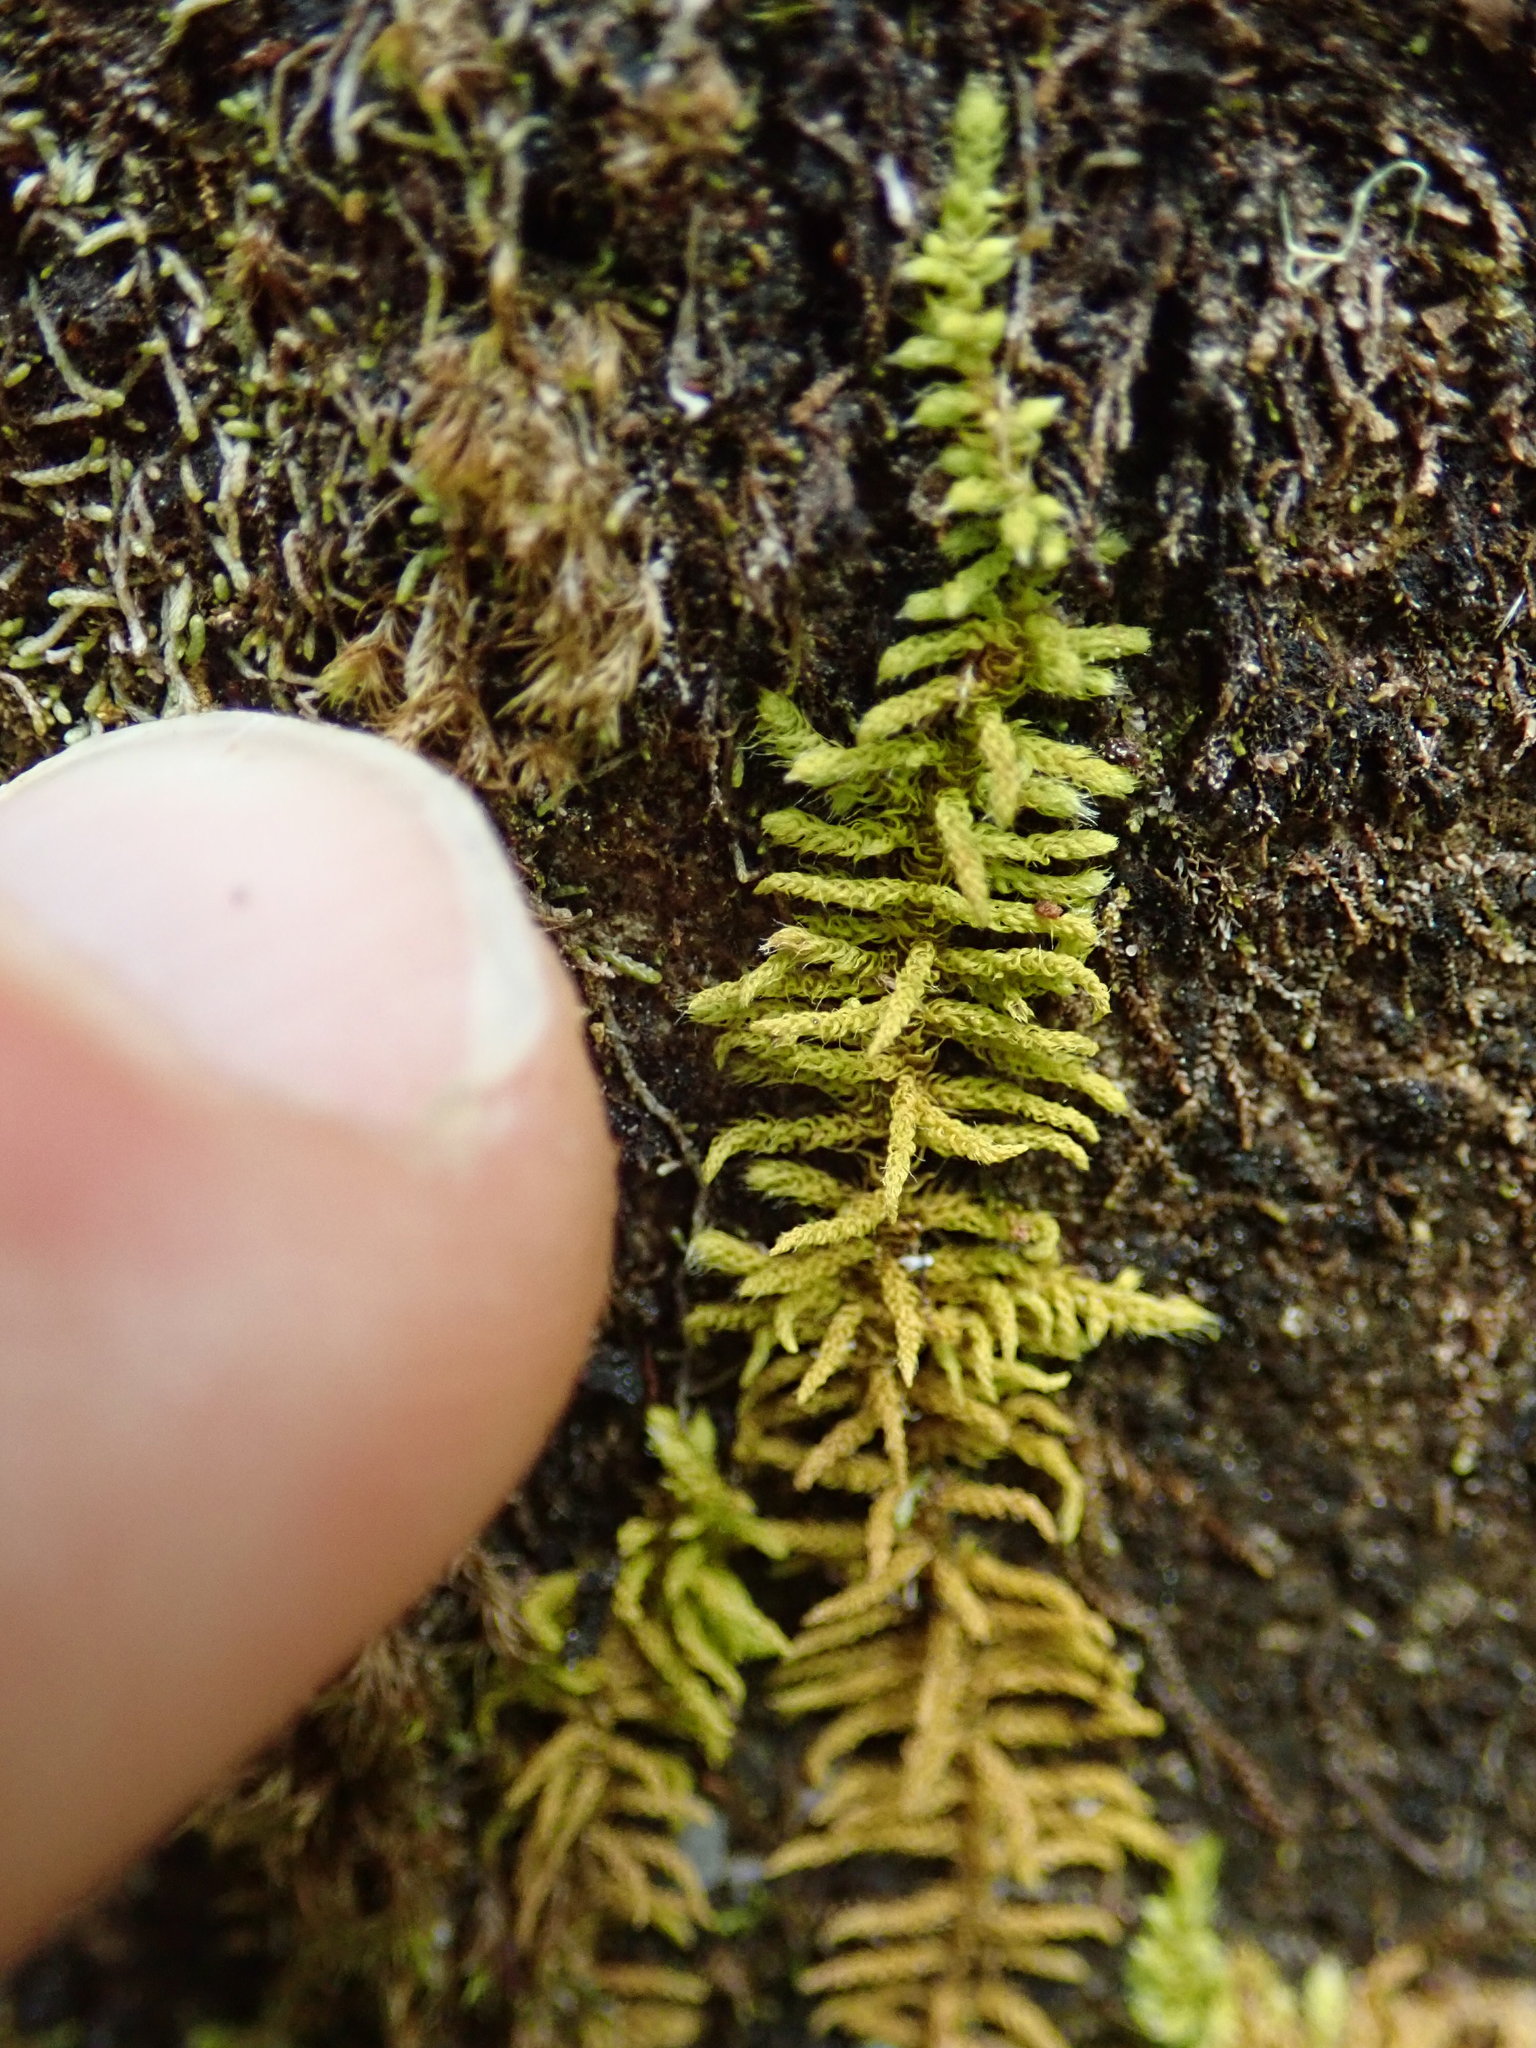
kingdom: Plantae
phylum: Bryophyta
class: Bryopsida
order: Hypnales
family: Brachytheciaceae
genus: Claopodium
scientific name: Claopodium bolanderi
